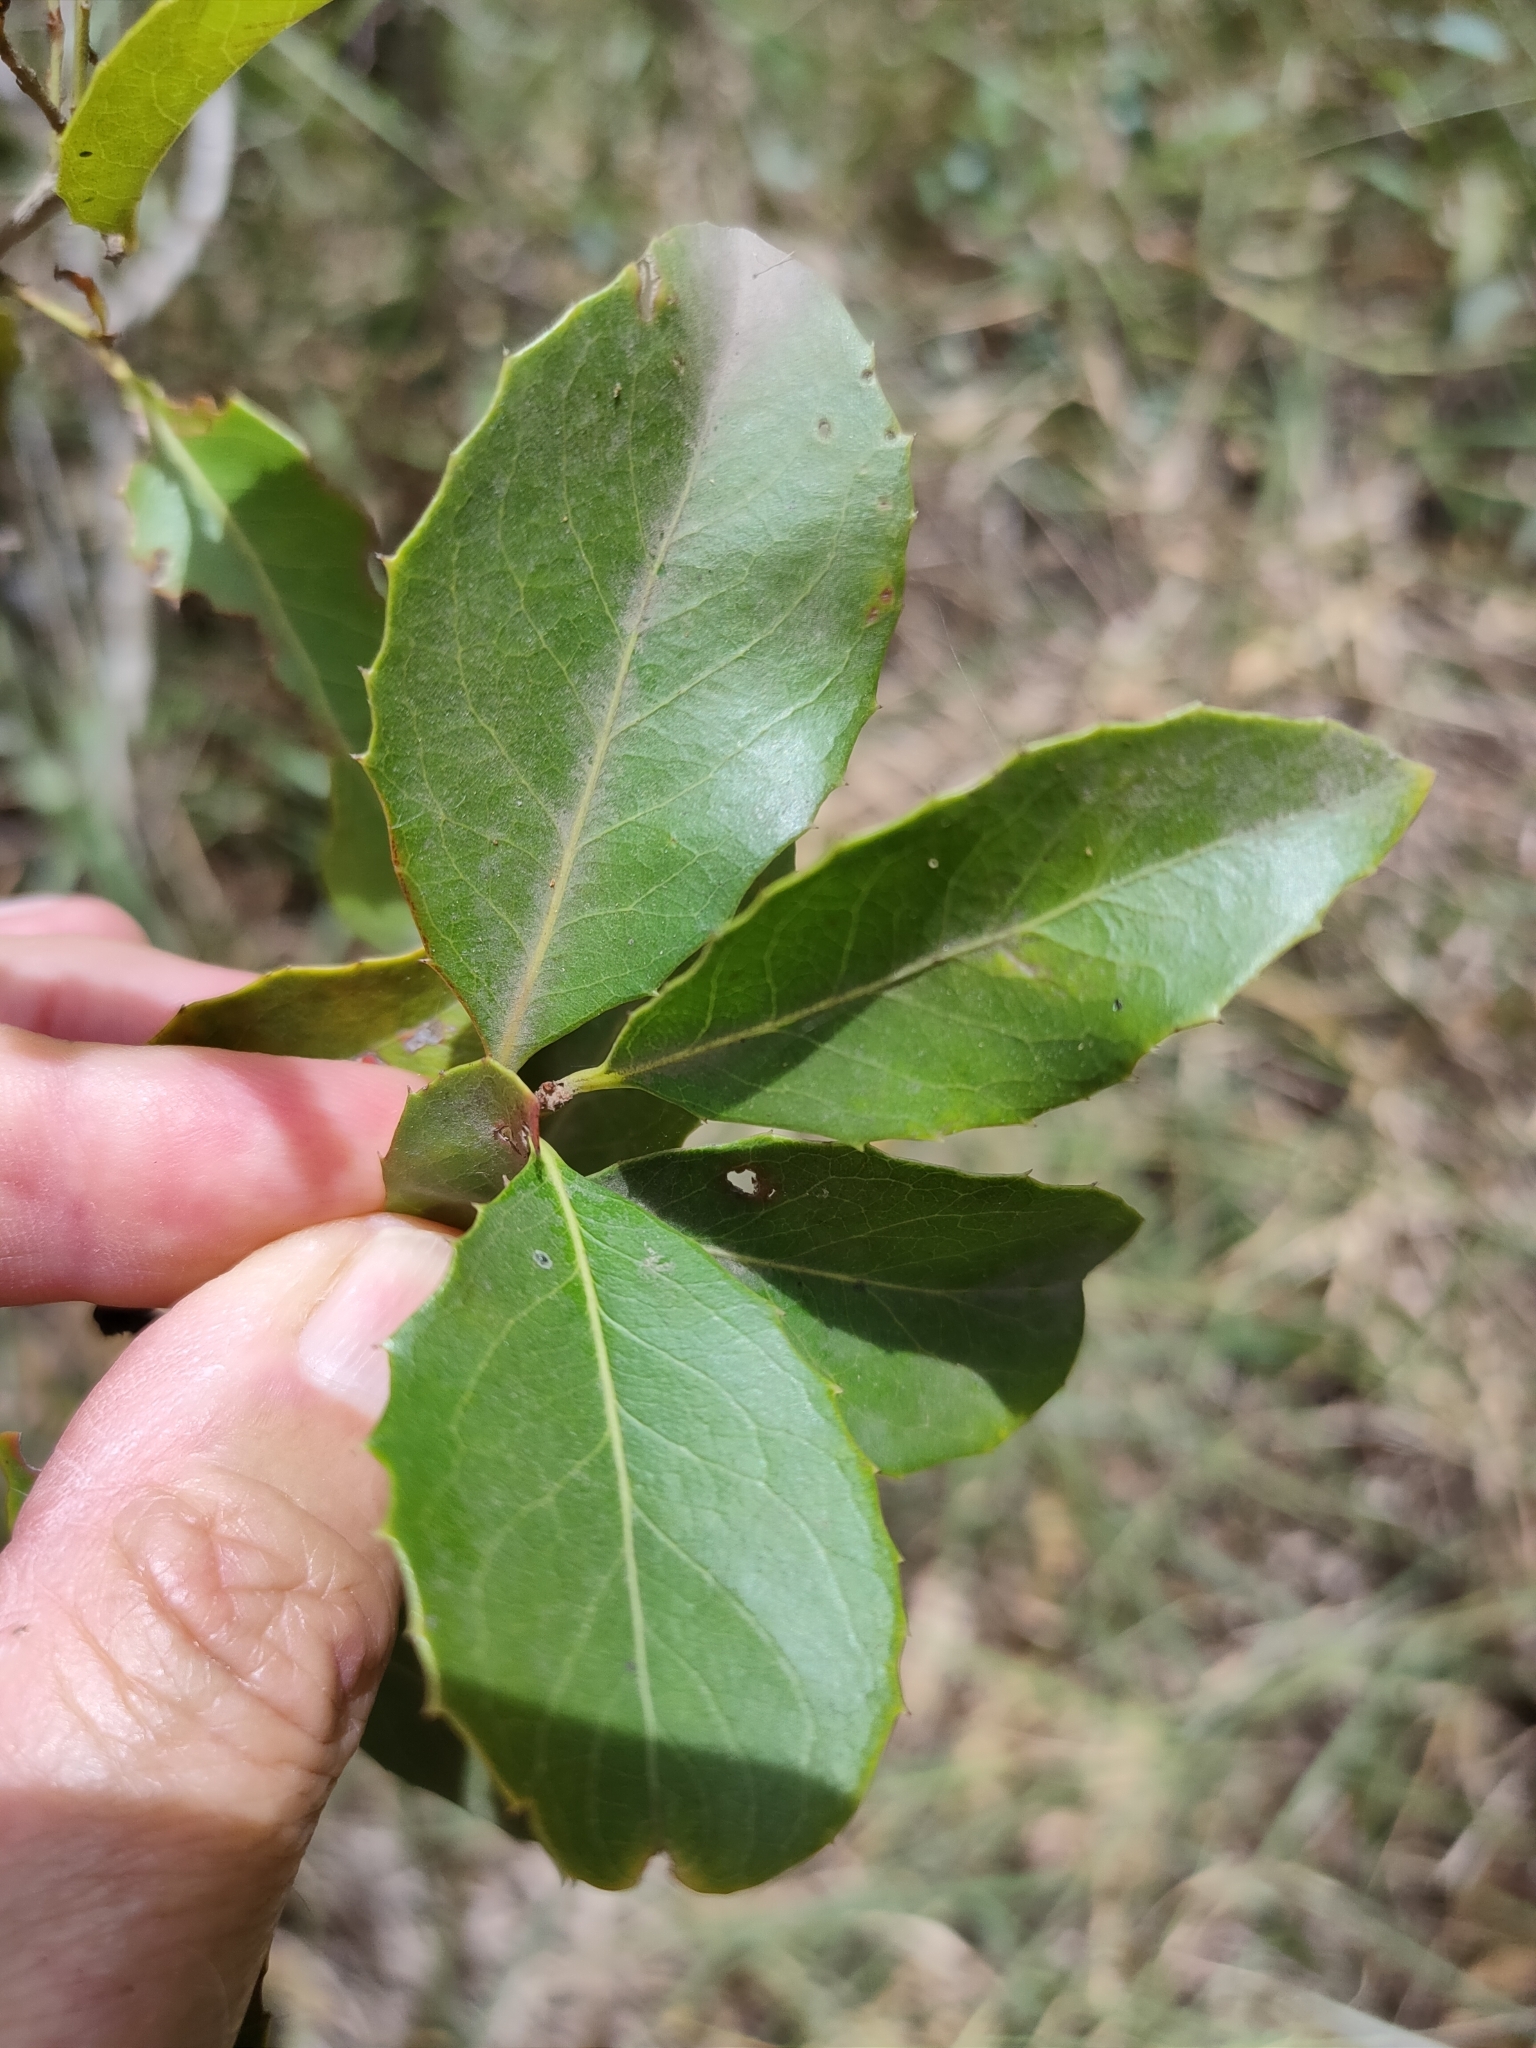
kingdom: Plantae
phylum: Tracheophyta
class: Magnoliopsida
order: Celastrales
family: Celastraceae
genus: Denhamia
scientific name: Denhamia bilocularis
